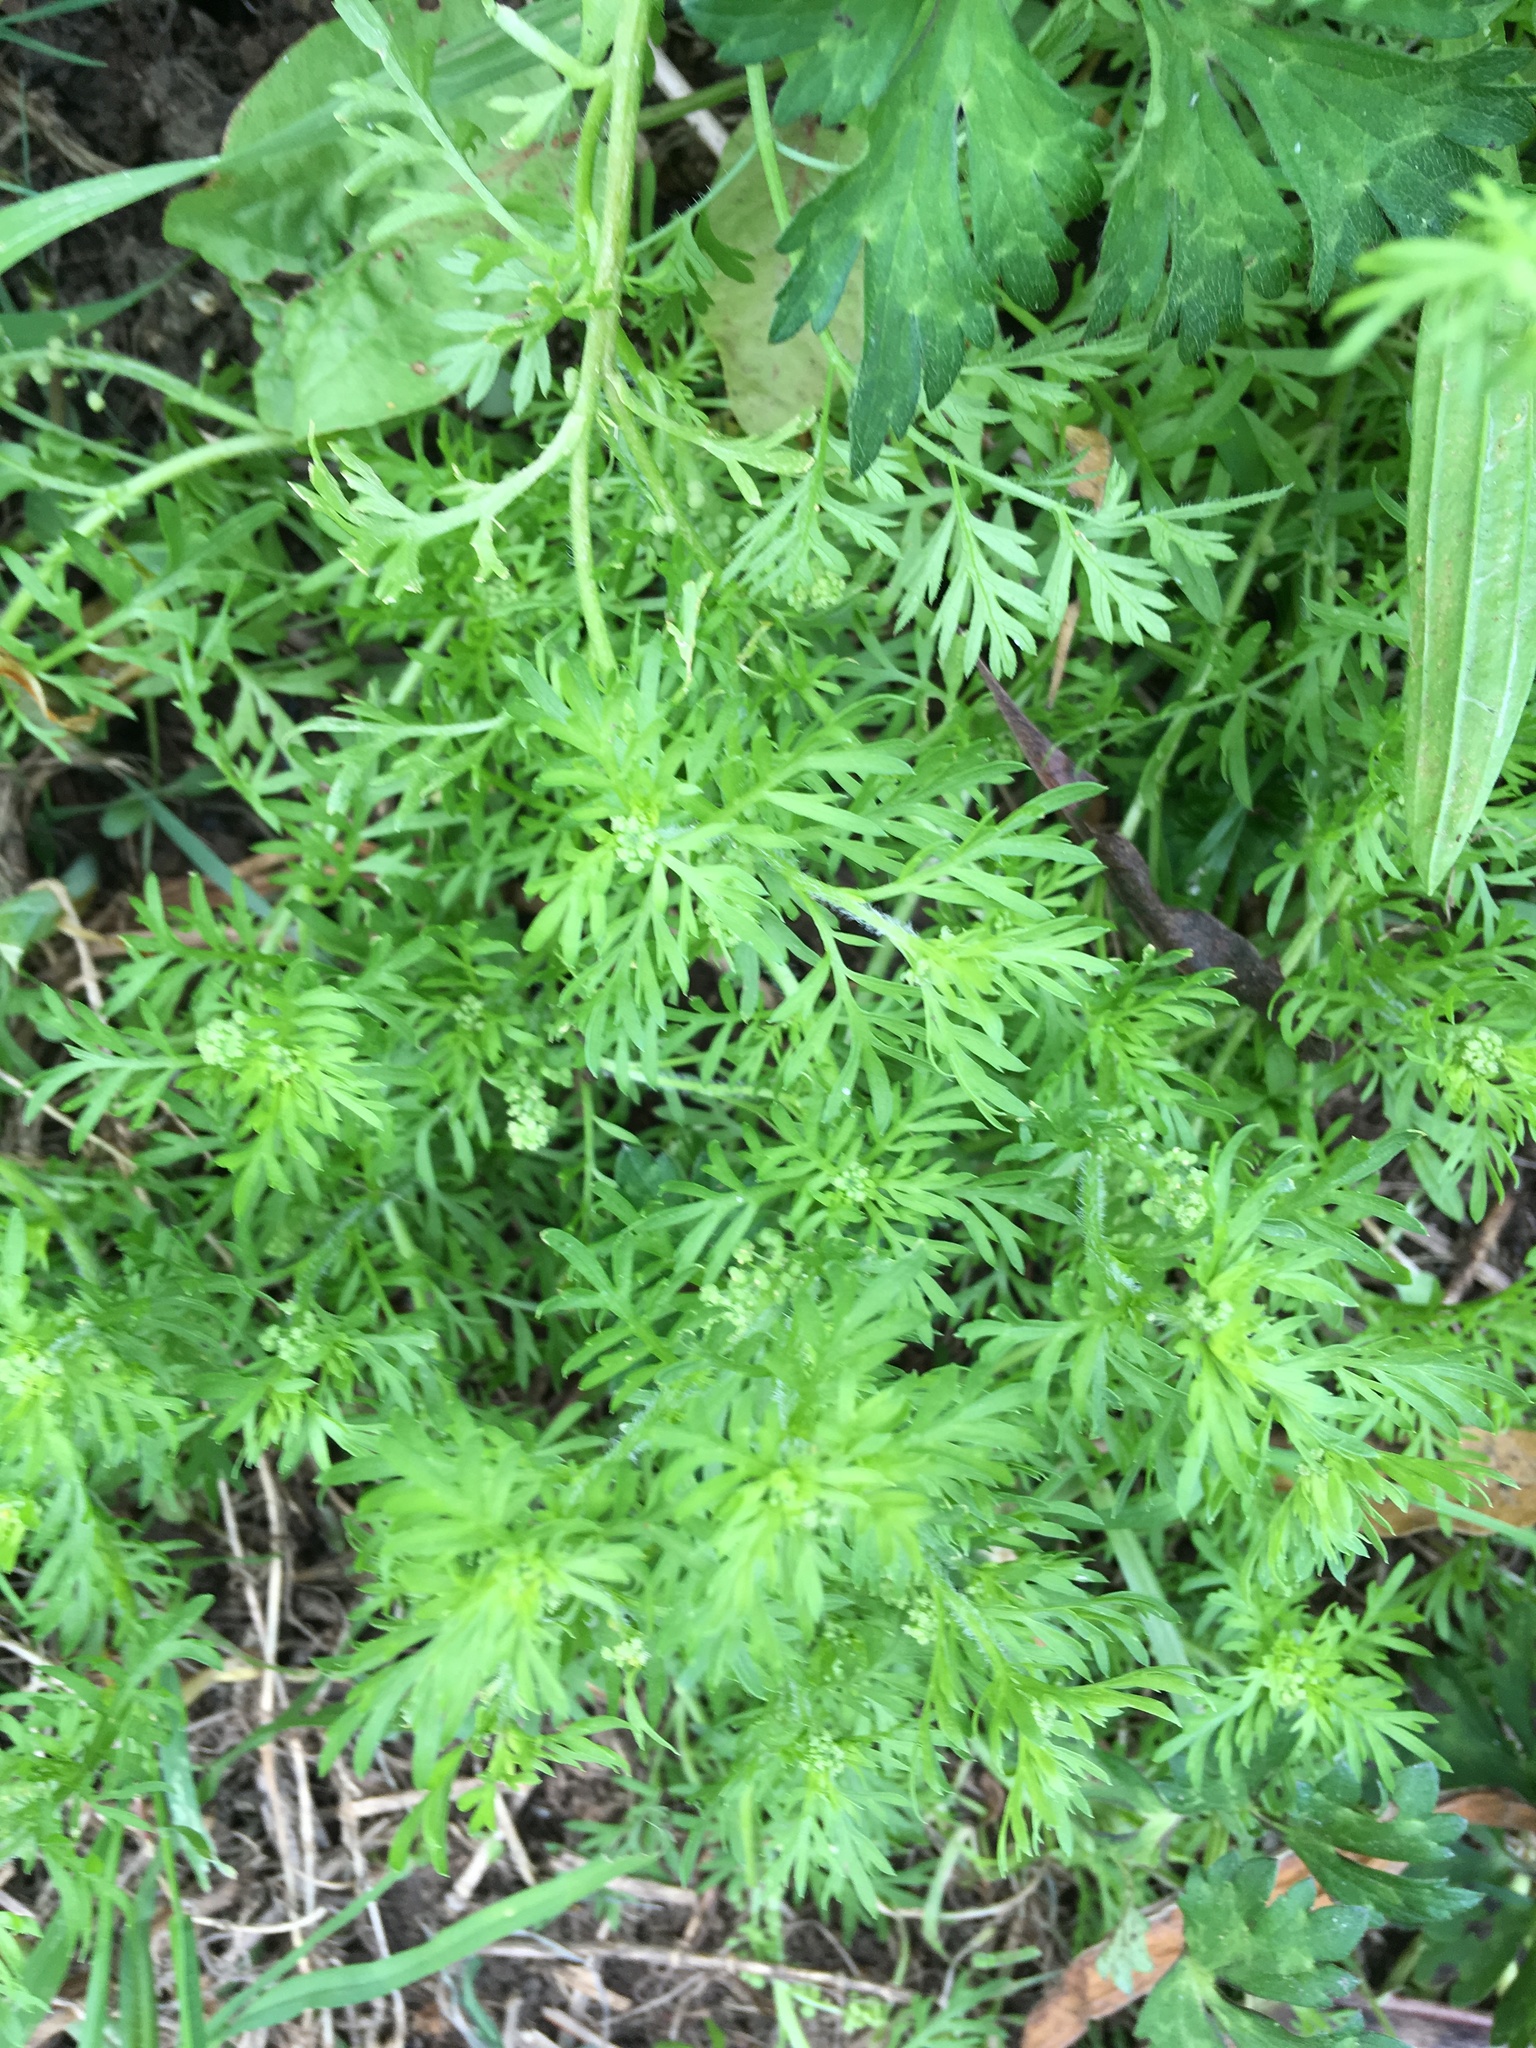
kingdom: Plantae
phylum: Tracheophyta
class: Magnoliopsida
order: Brassicales
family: Brassicaceae
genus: Lepidium
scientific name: Lepidium didymum
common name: Lesser swinecress
